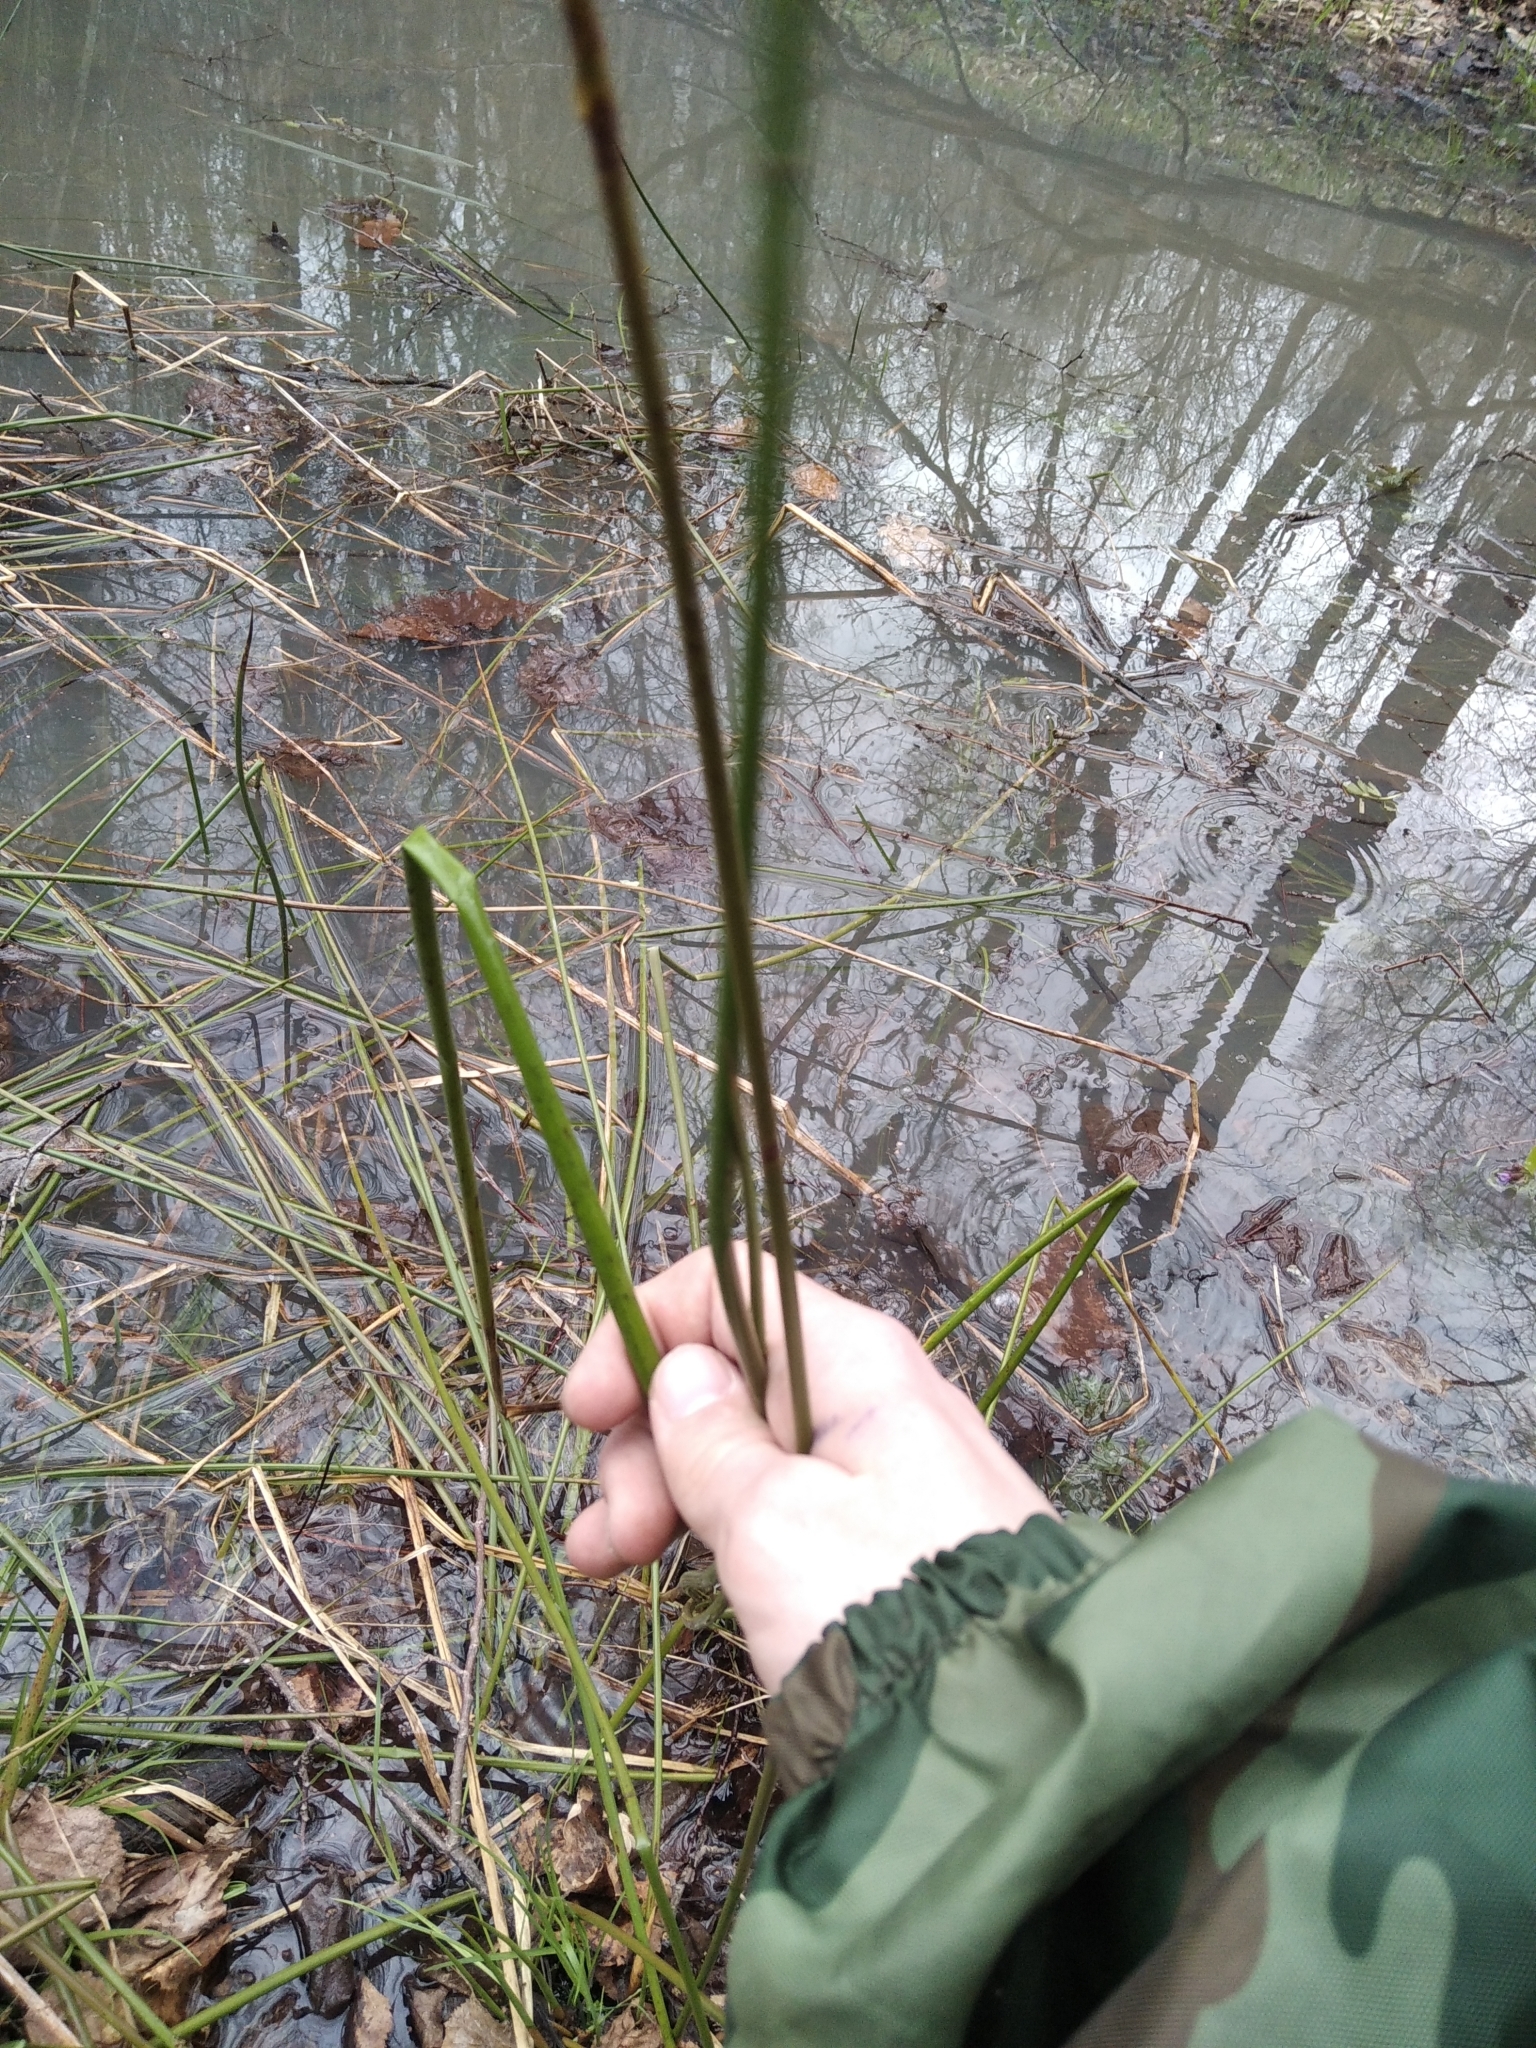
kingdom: Plantae
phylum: Tracheophyta
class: Liliopsida
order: Poales
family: Juncaceae
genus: Juncus
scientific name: Juncus effusus
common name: Soft rush
